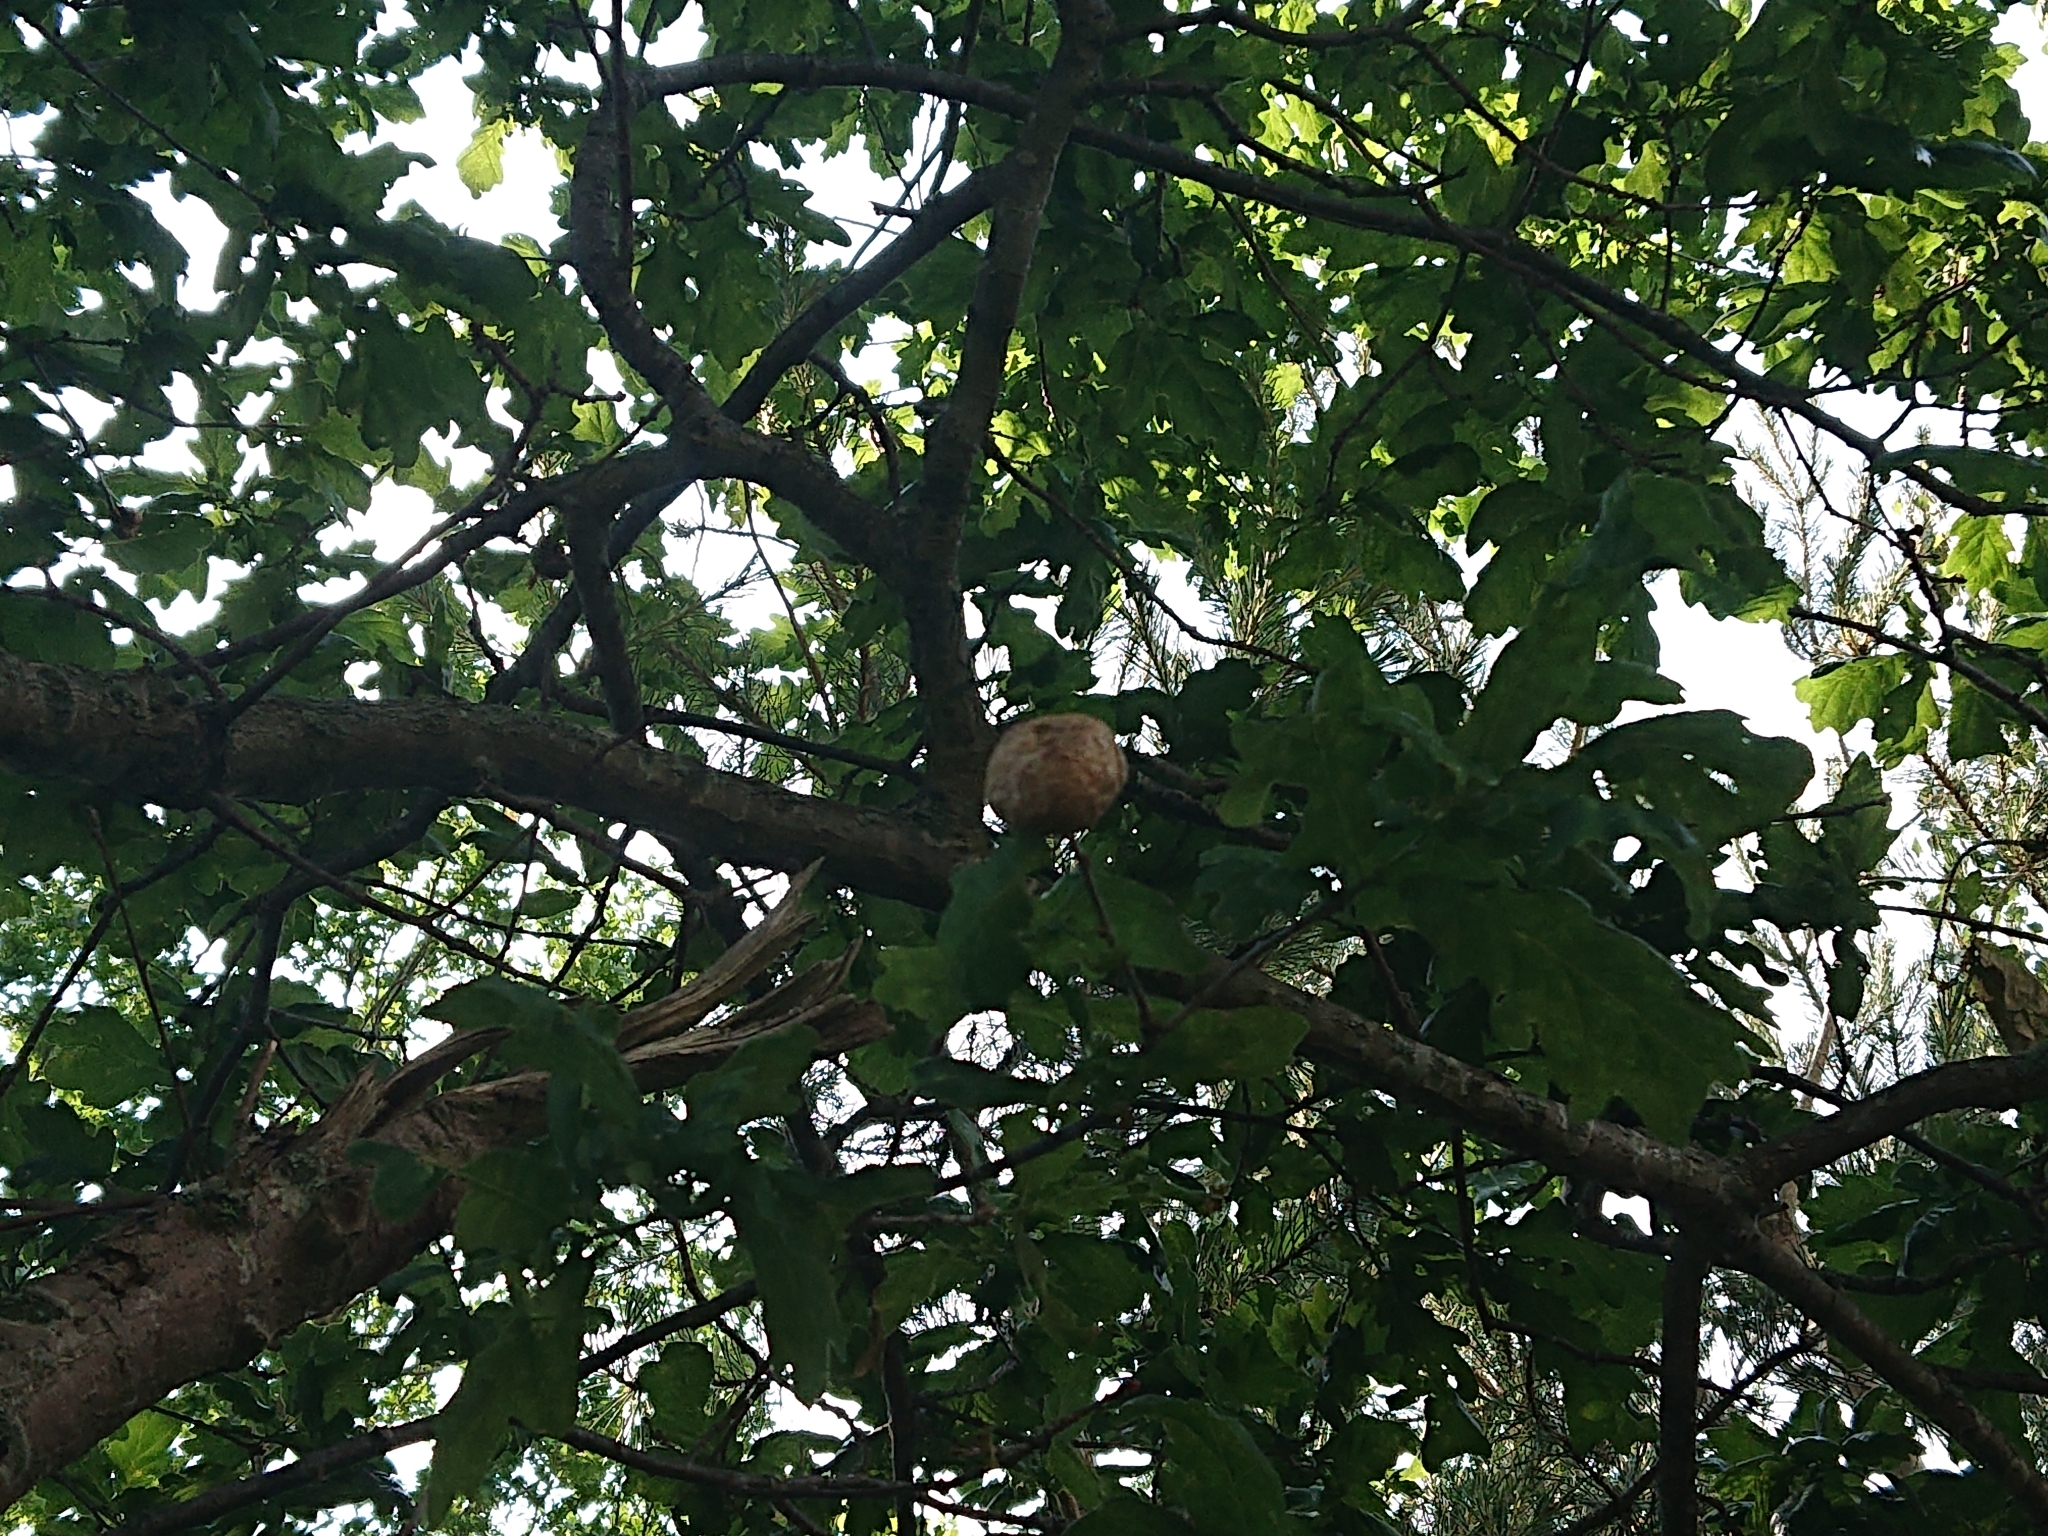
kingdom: Animalia
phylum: Arthropoda
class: Insecta
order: Hymenoptera
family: Cynipidae
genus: Biorhiza
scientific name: Biorhiza pallida
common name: Oak apple
